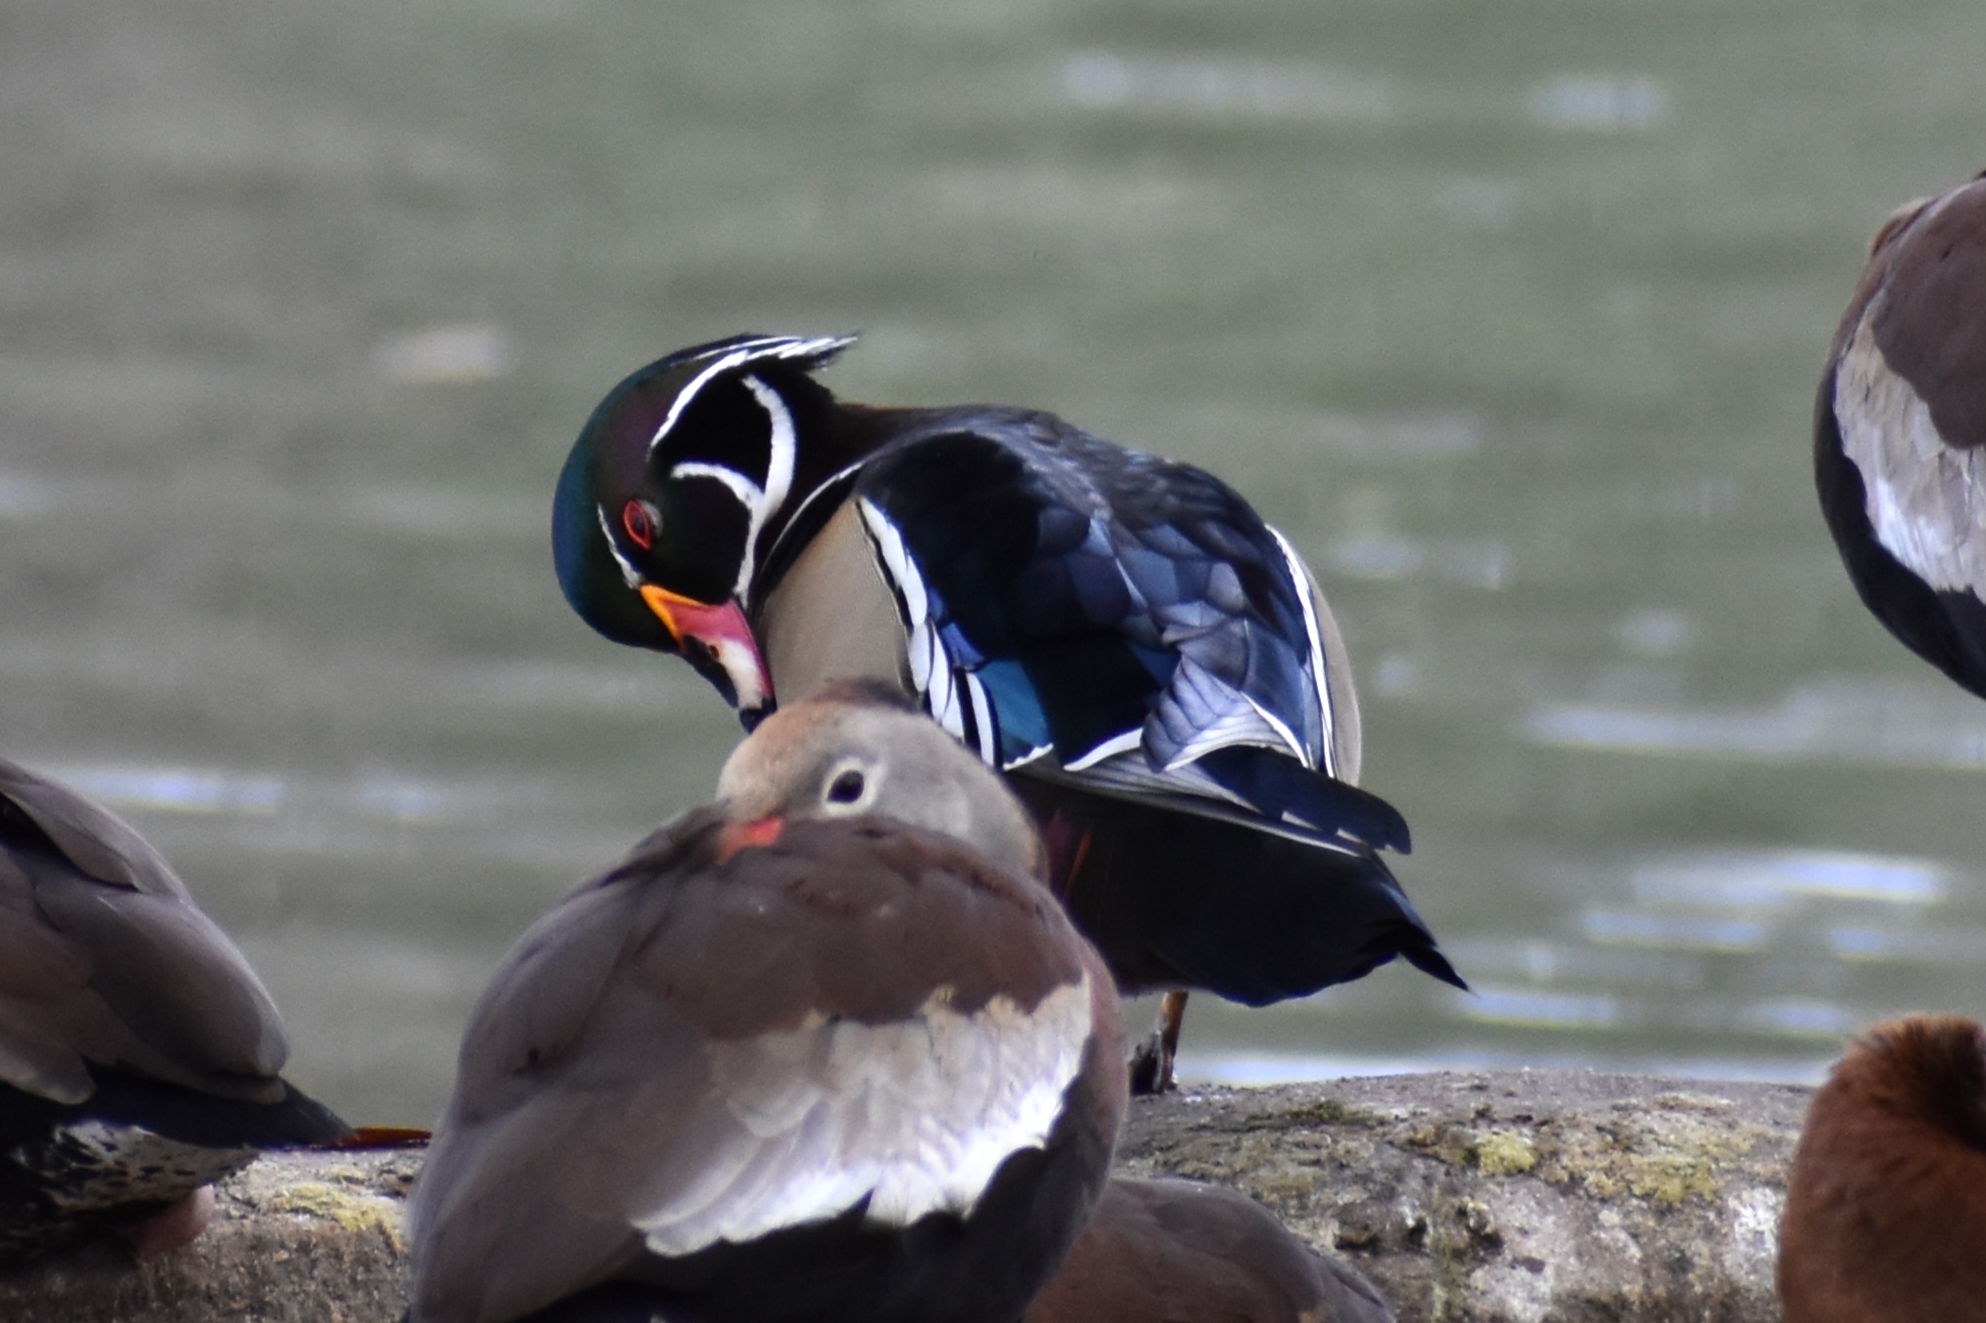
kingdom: Animalia
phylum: Chordata
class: Aves
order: Anseriformes
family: Anatidae
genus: Aix
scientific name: Aix sponsa
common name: Wood duck
